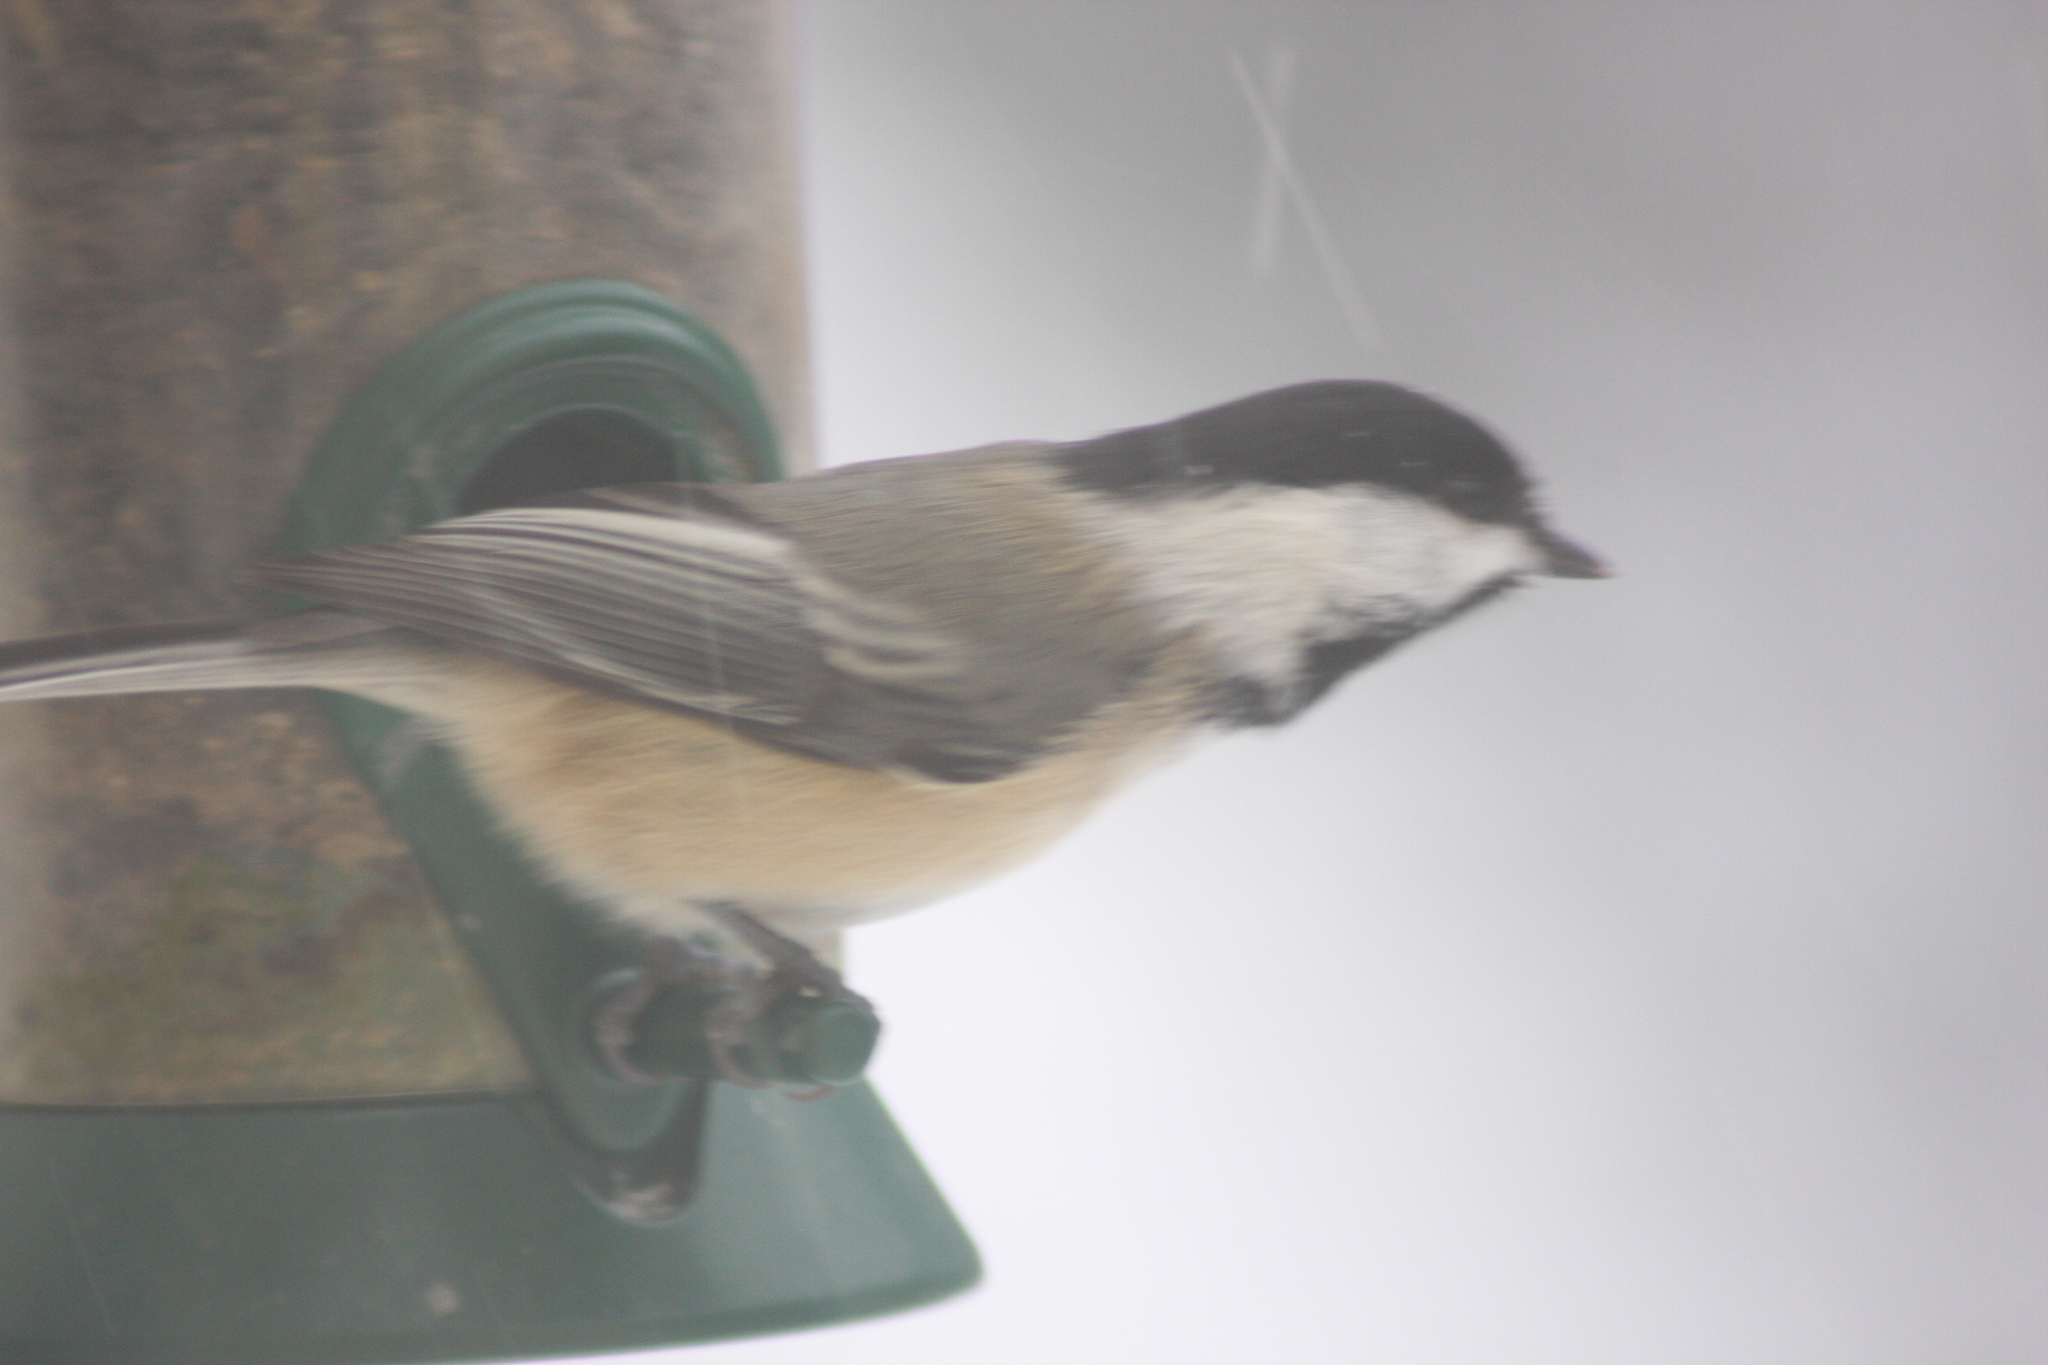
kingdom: Animalia
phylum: Chordata
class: Aves
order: Passeriformes
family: Paridae
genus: Poecile
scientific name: Poecile atricapillus
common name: Black-capped chickadee
